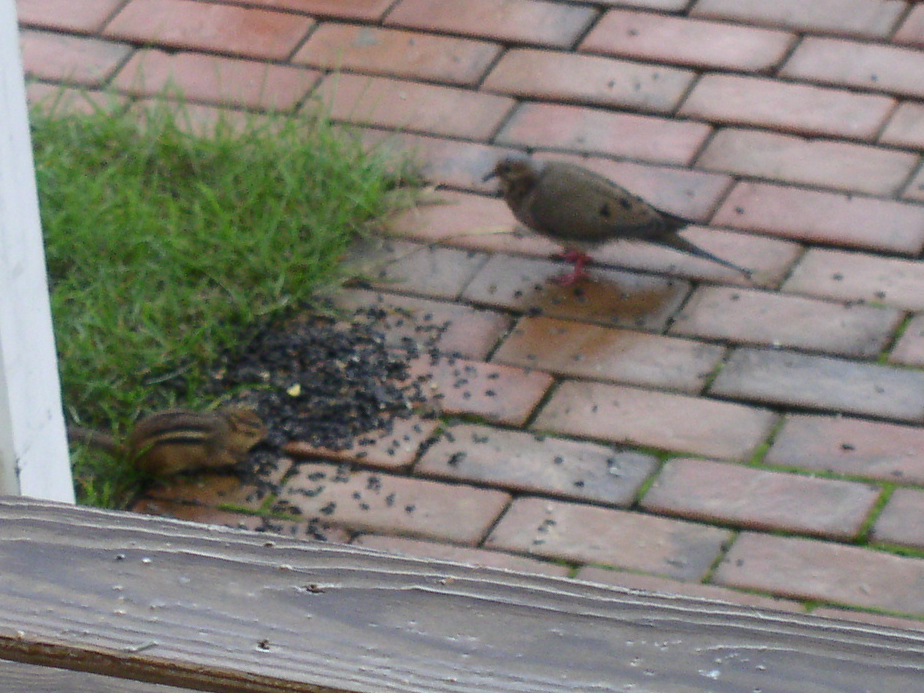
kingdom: Animalia
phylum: Chordata
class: Aves
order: Columbiformes
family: Columbidae
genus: Zenaida
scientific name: Zenaida macroura
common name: Mourning dove
